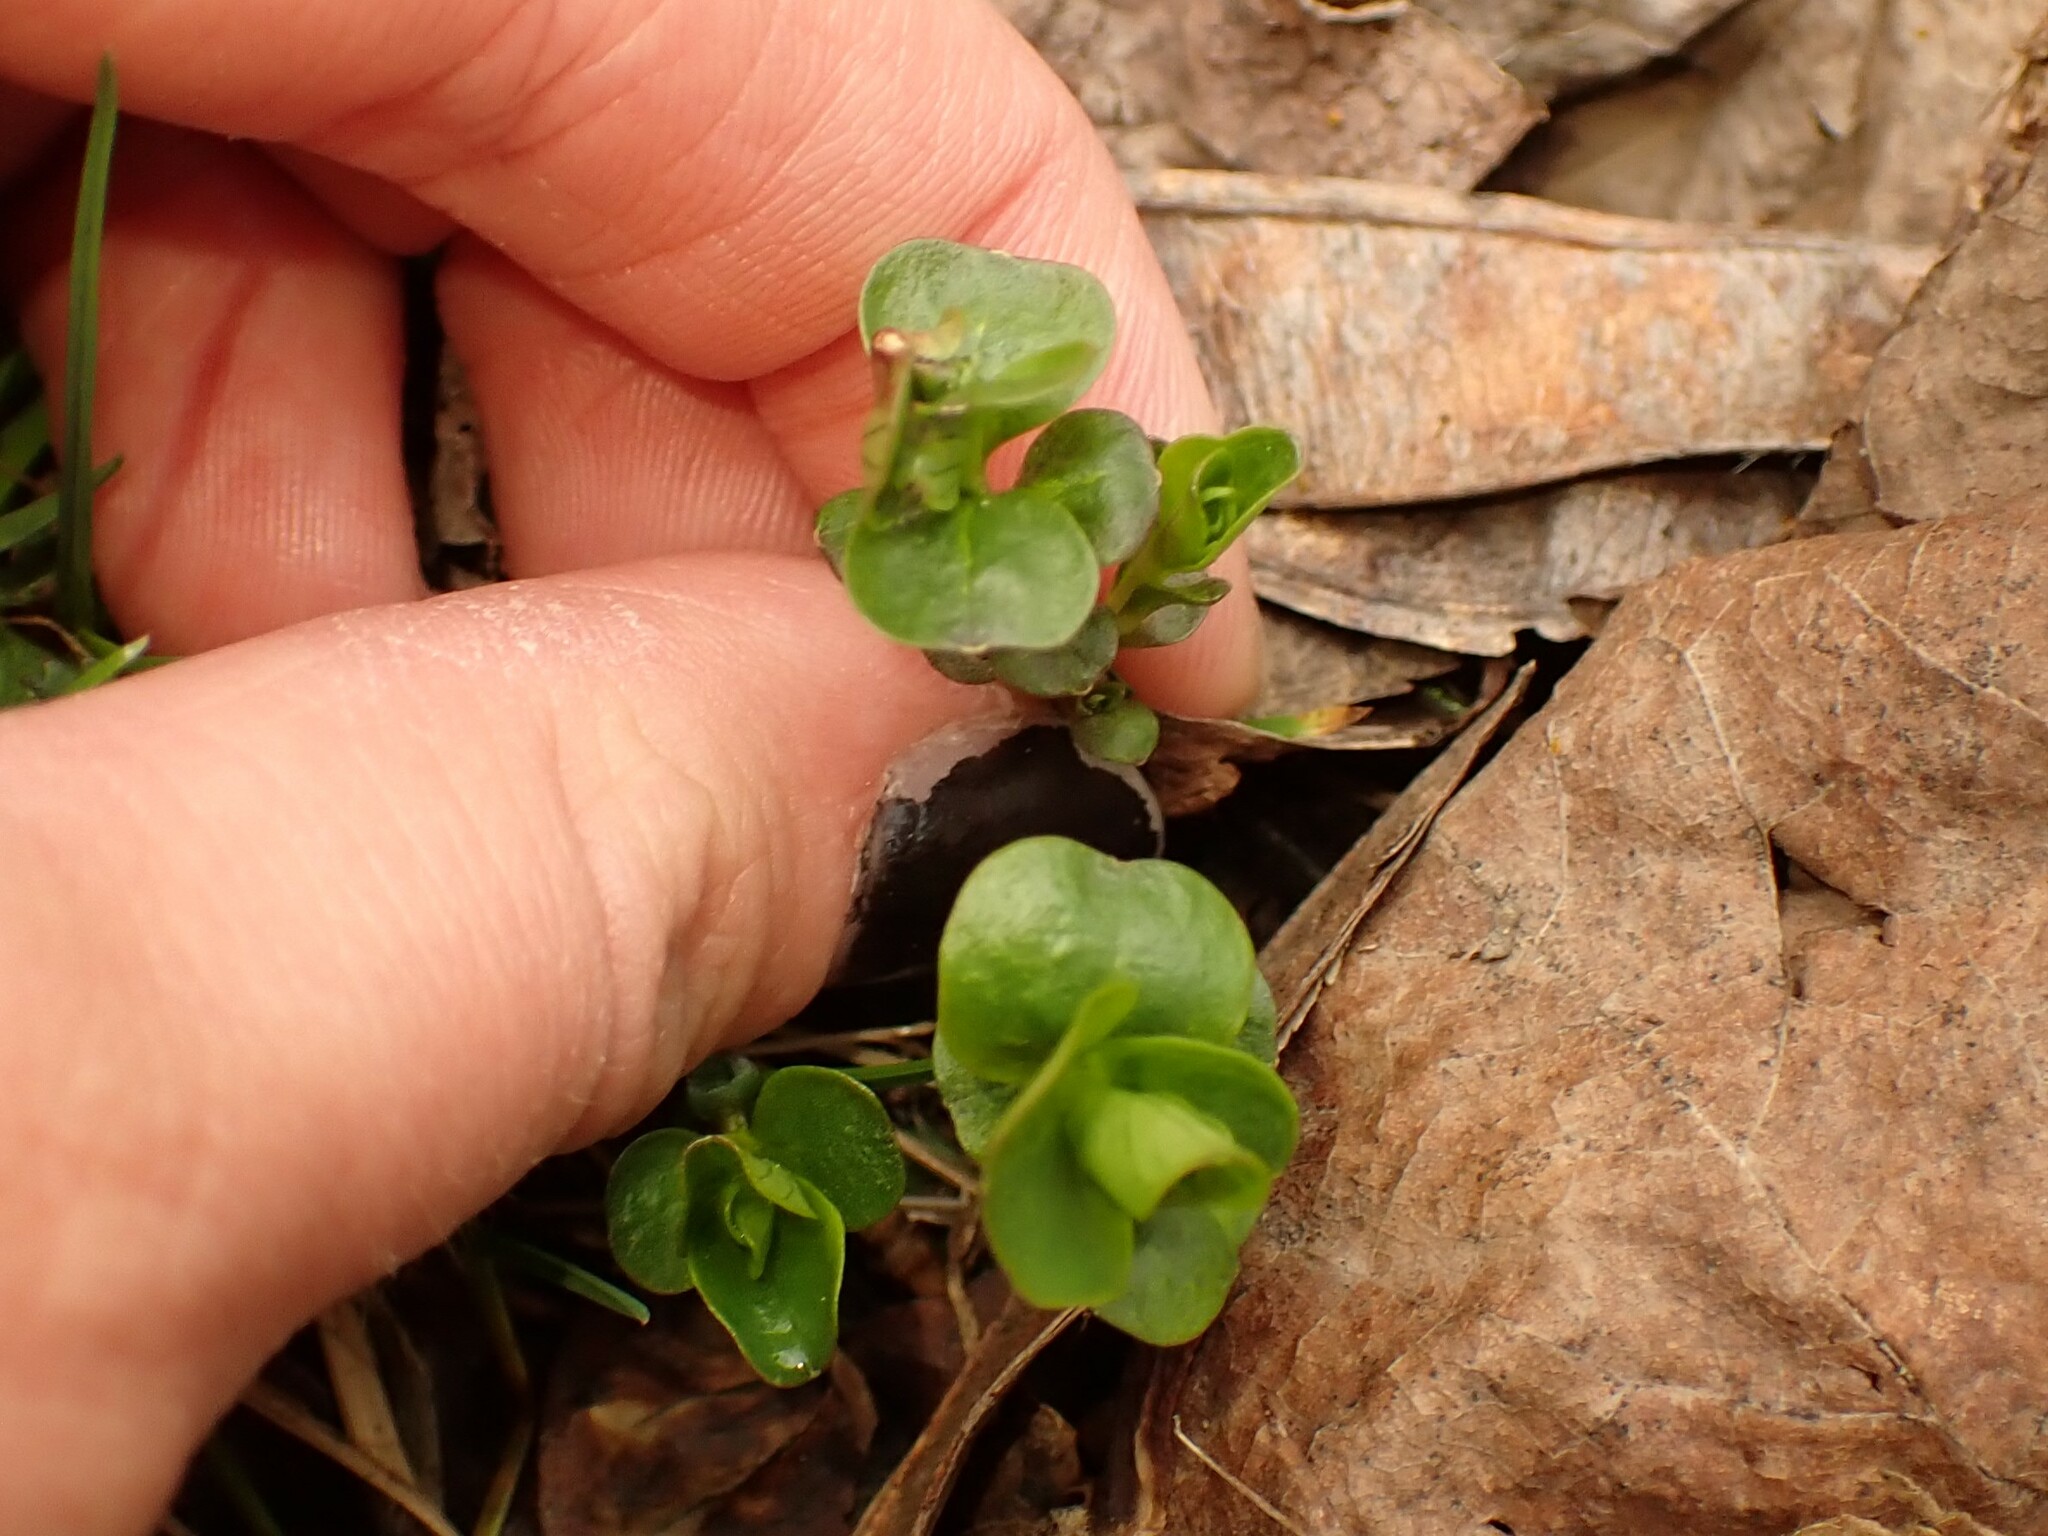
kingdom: Plantae
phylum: Tracheophyta
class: Magnoliopsida
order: Ericales
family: Primulaceae
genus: Lysimachia
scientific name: Lysimachia nummularia
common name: Moneywort
